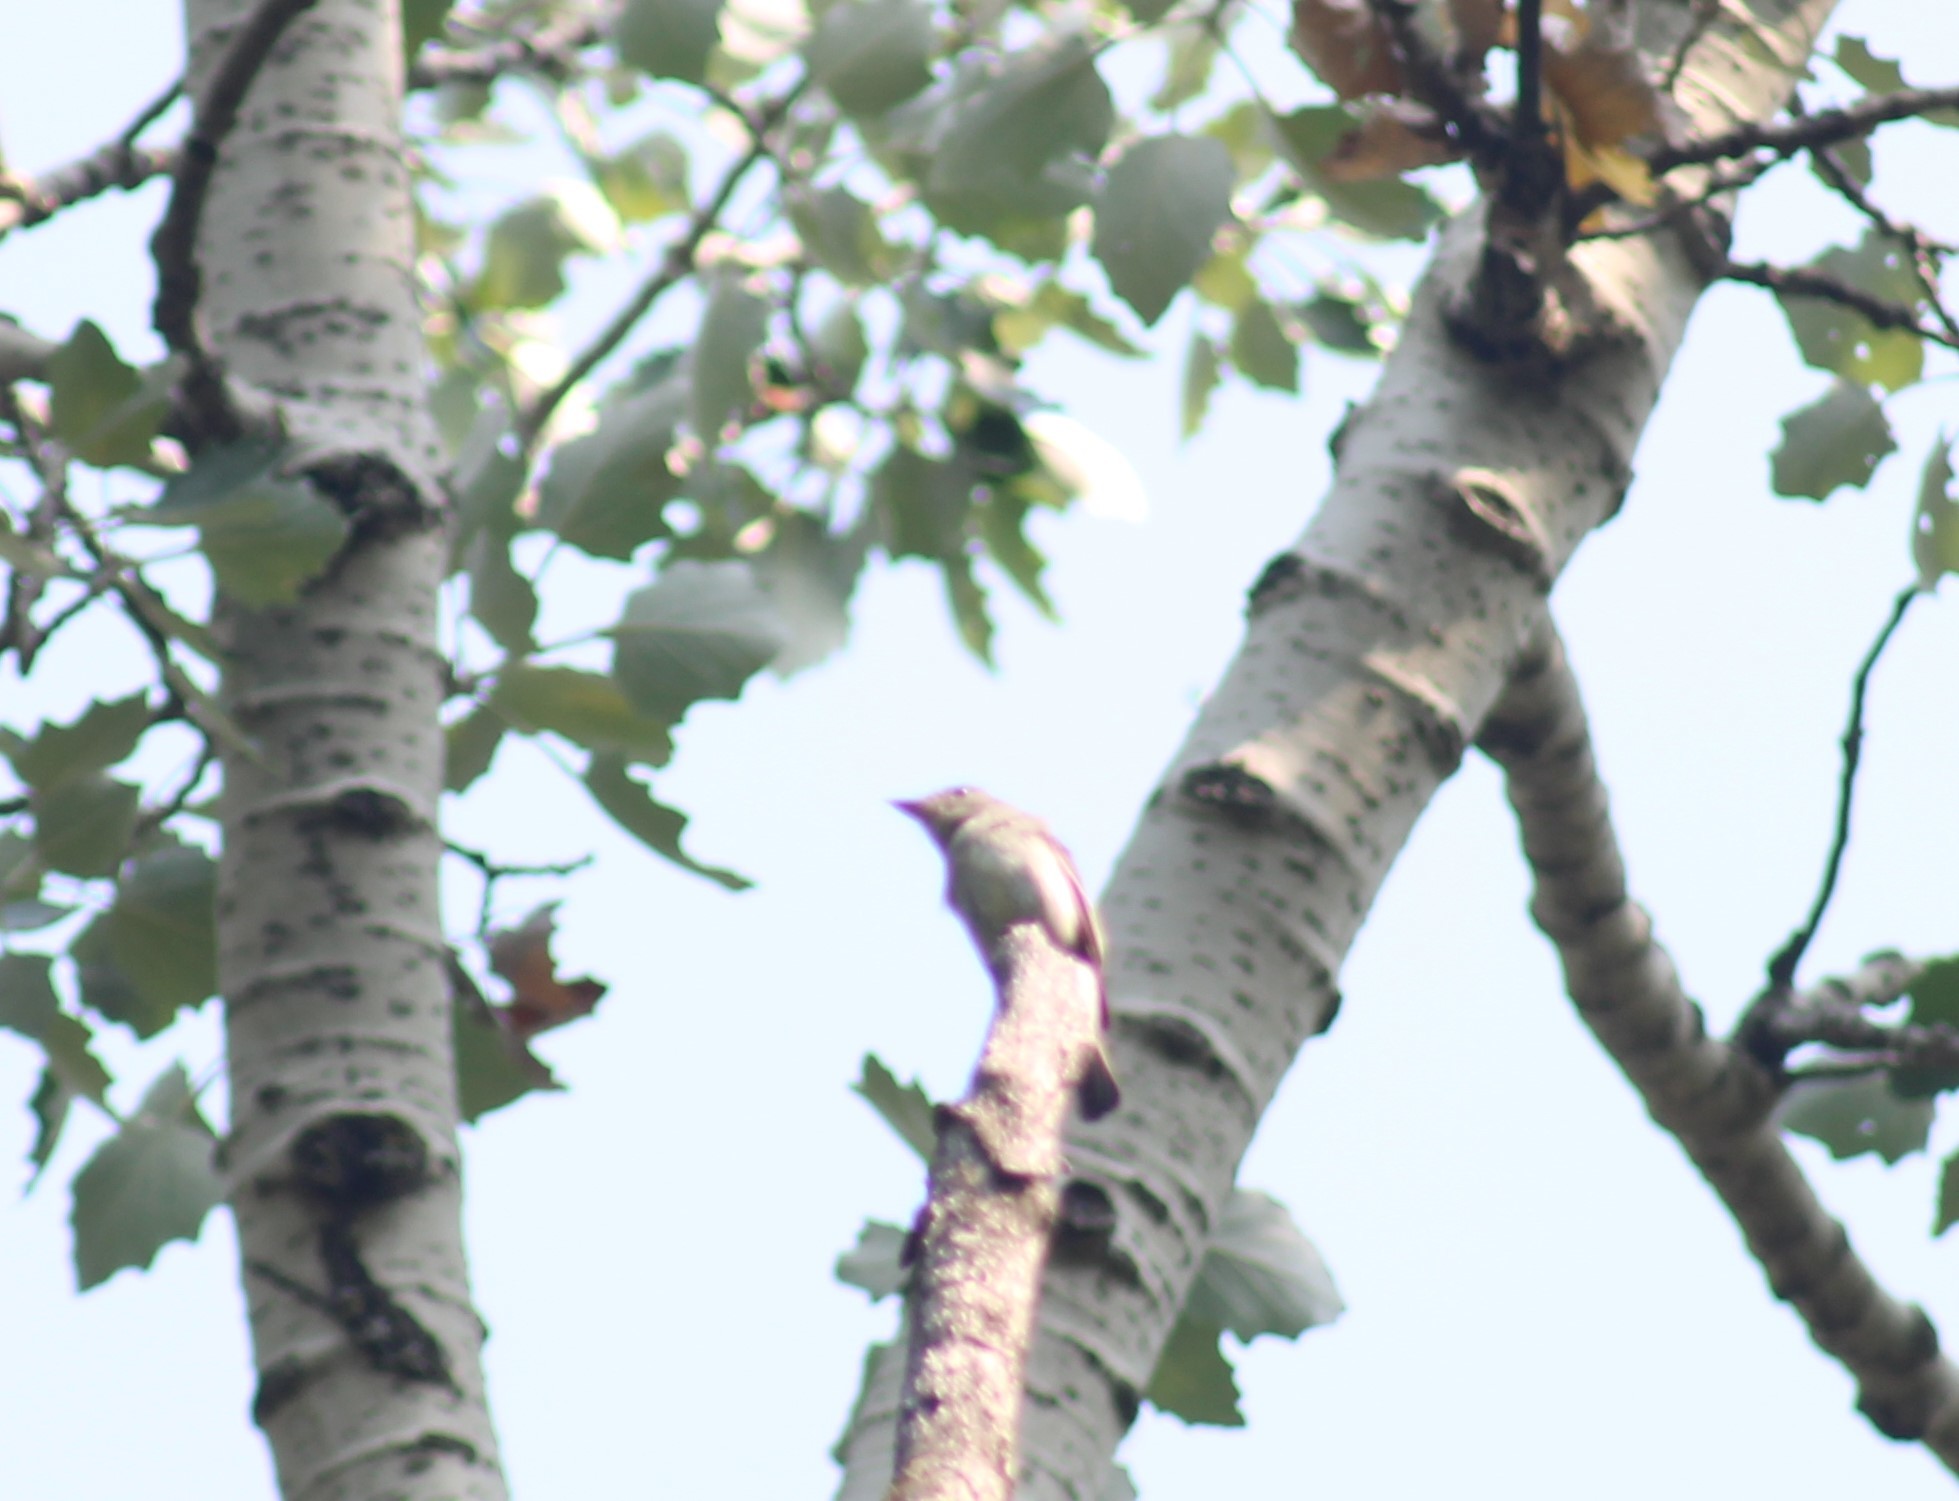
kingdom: Animalia
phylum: Chordata
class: Aves
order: Passeriformes
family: Tyrannidae
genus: Contopus
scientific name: Contopus virens
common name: Eastern wood-pewee
